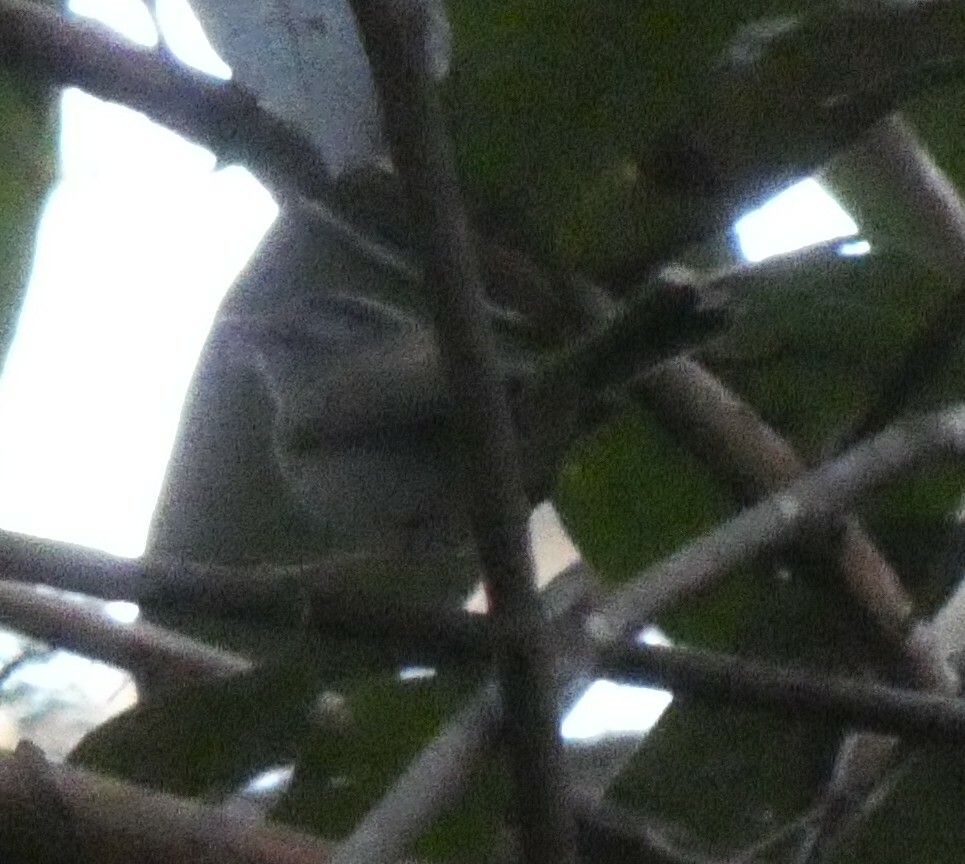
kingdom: Animalia
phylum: Chordata
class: Aves
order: Passeriformes
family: Parulidae
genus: Basileuterus
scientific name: Basileuterus culicivorus
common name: Golden-crowned warbler
